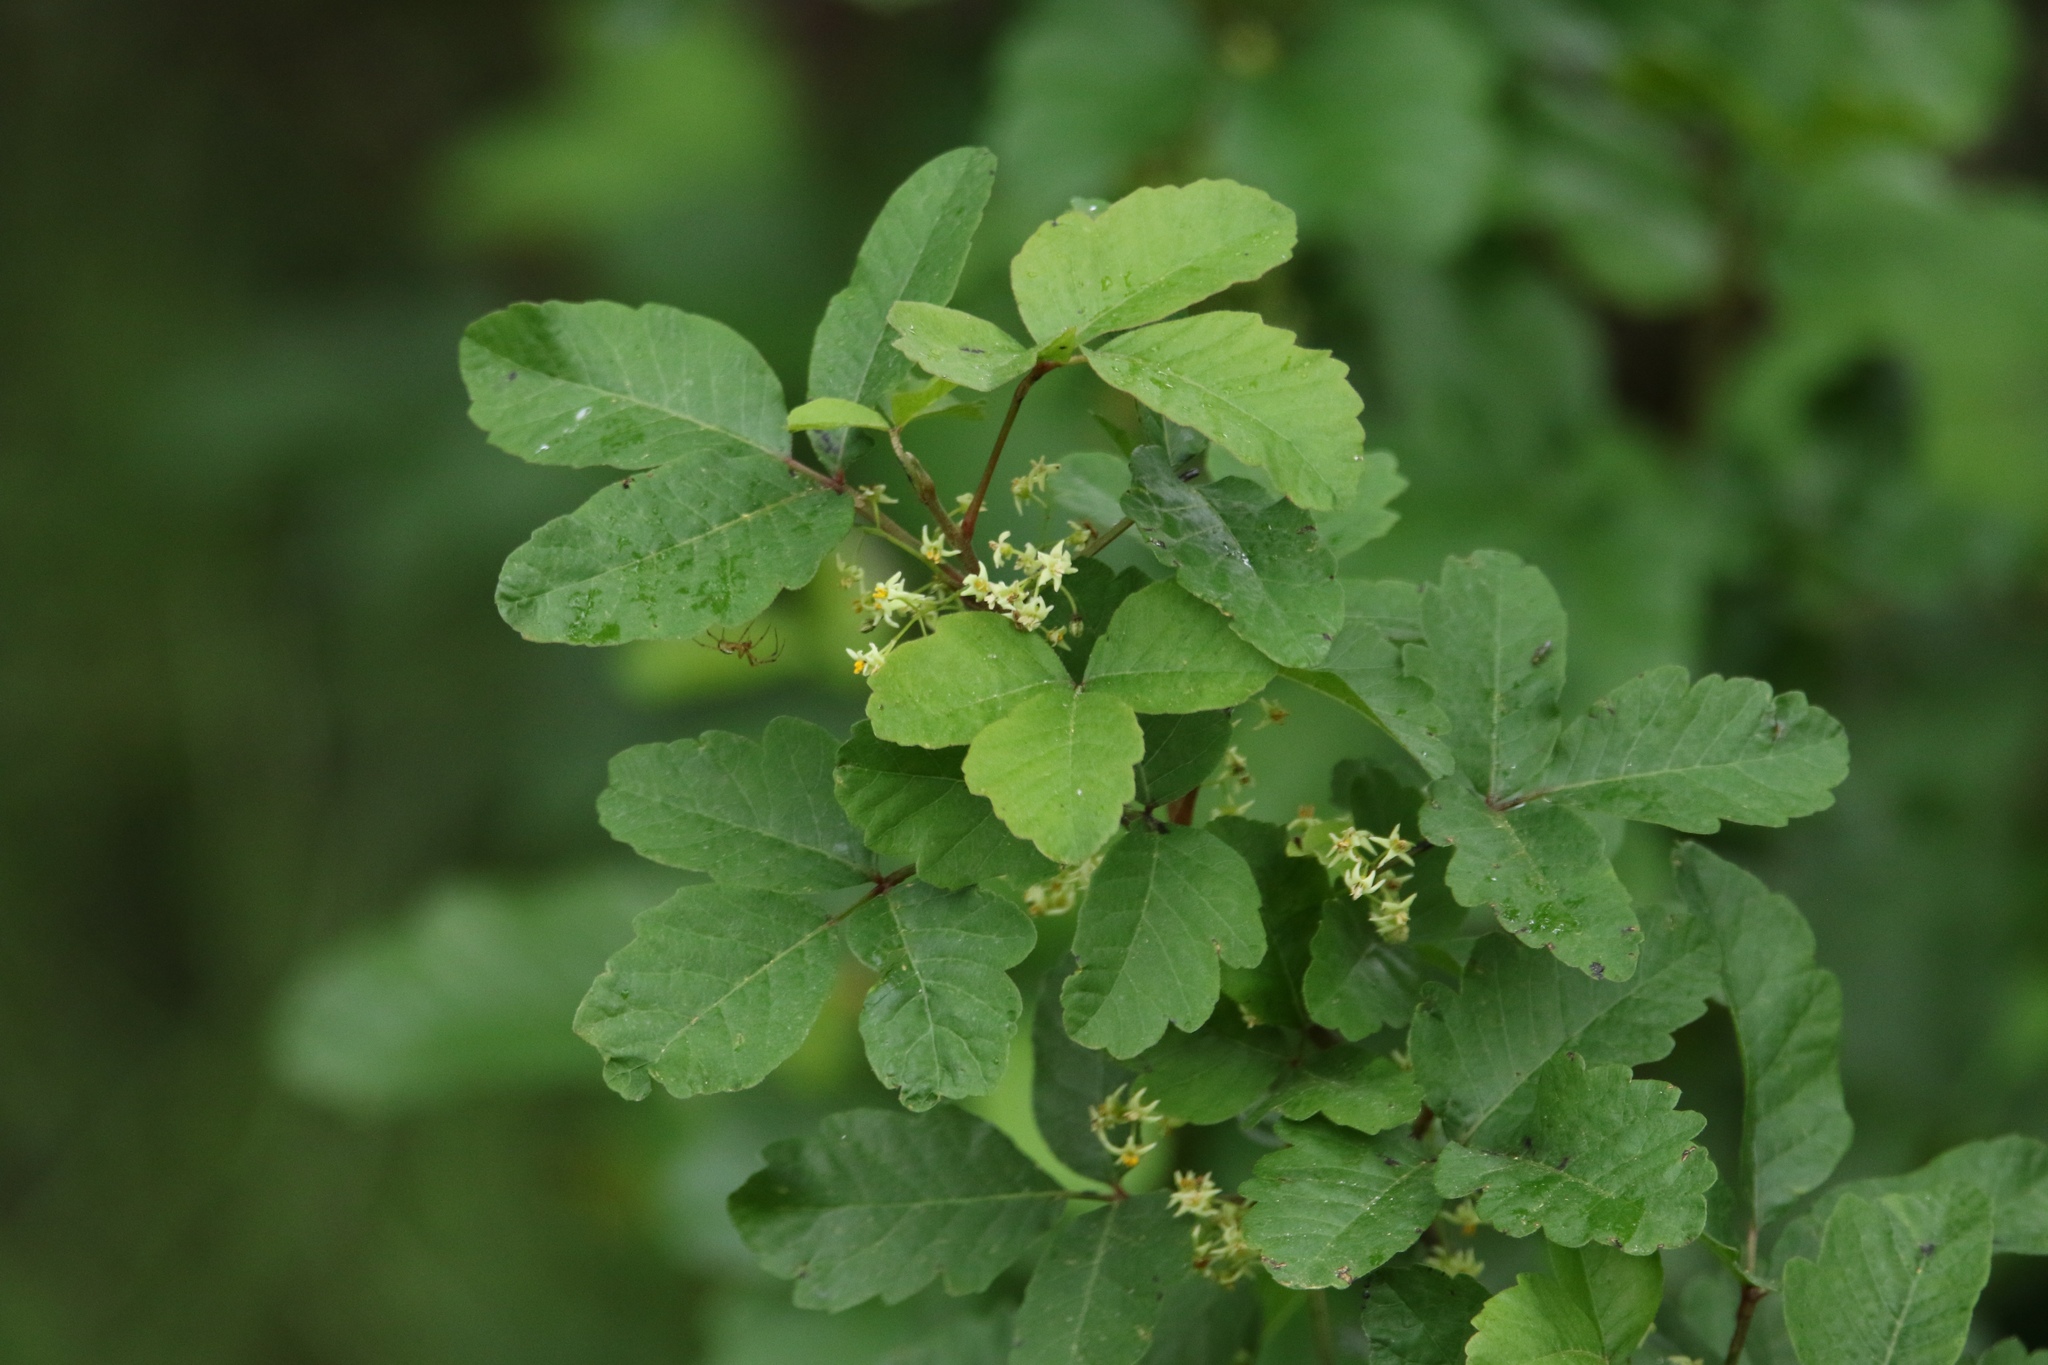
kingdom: Plantae
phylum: Tracheophyta
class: Magnoliopsida
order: Sapindales
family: Anacardiaceae
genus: Toxicodendron
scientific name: Toxicodendron diversilobum
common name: Pacific poison-oak
